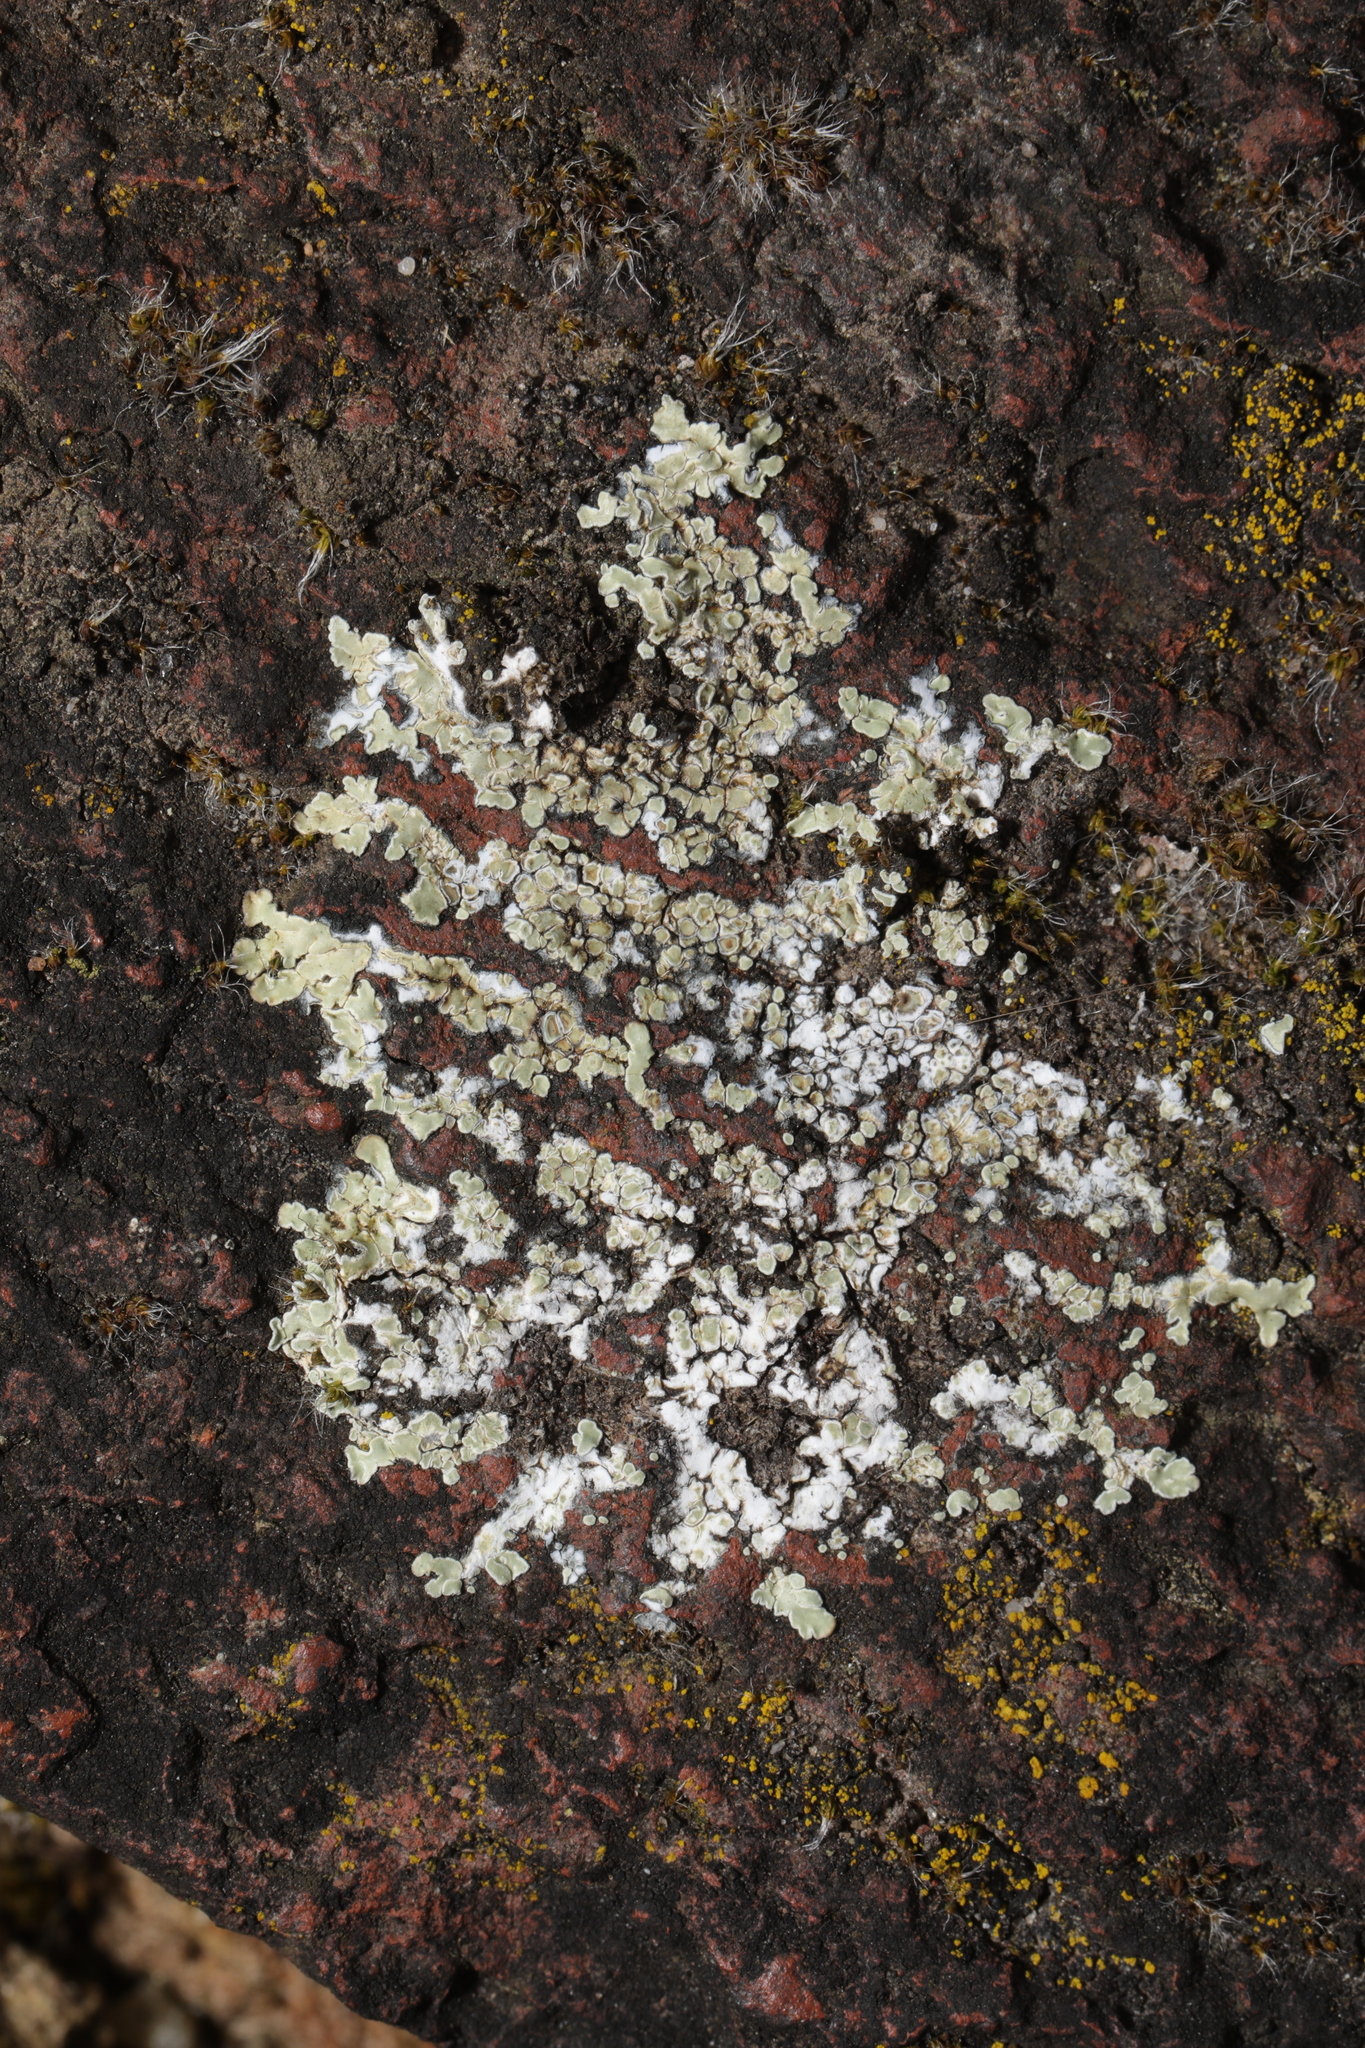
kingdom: Fungi
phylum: Ascomycota
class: Lecanoromycetes
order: Lecanorales
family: Lecanoraceae
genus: Protoparmeliopsis
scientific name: Protoparmeliopsis muralis
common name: Stonewall rim lichen
